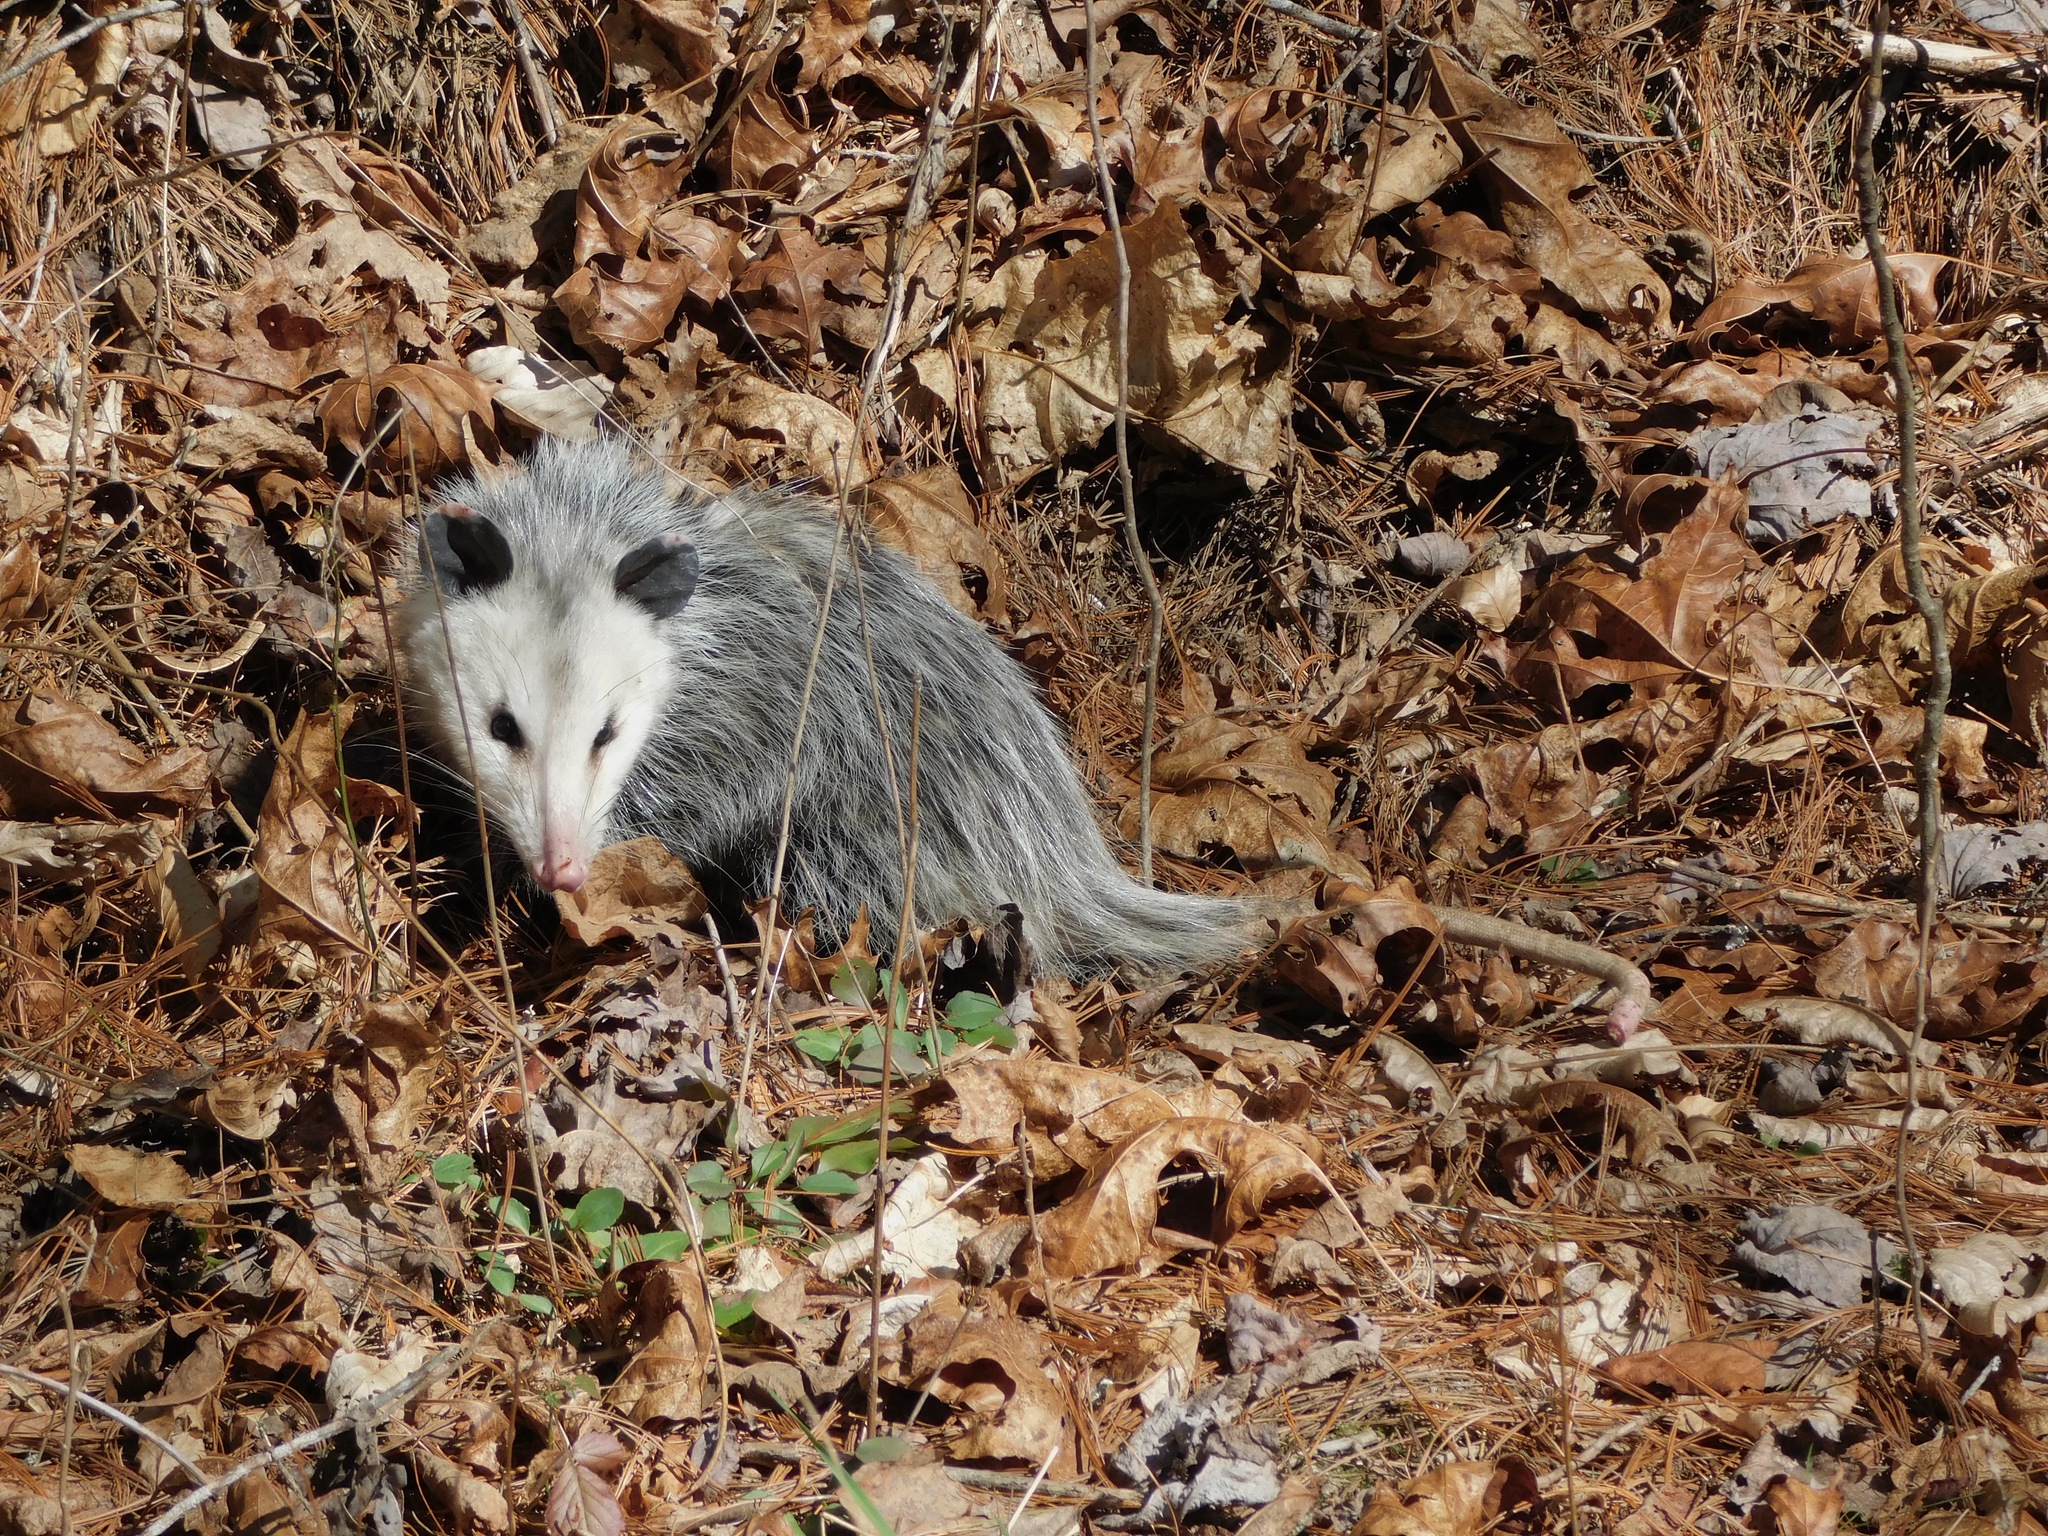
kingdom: Animalia
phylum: Chordata
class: Mammalia
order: Didelphimorphia
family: Didelphidae
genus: Didelphis
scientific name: Didelphis virginiana
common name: Virginia opossum
